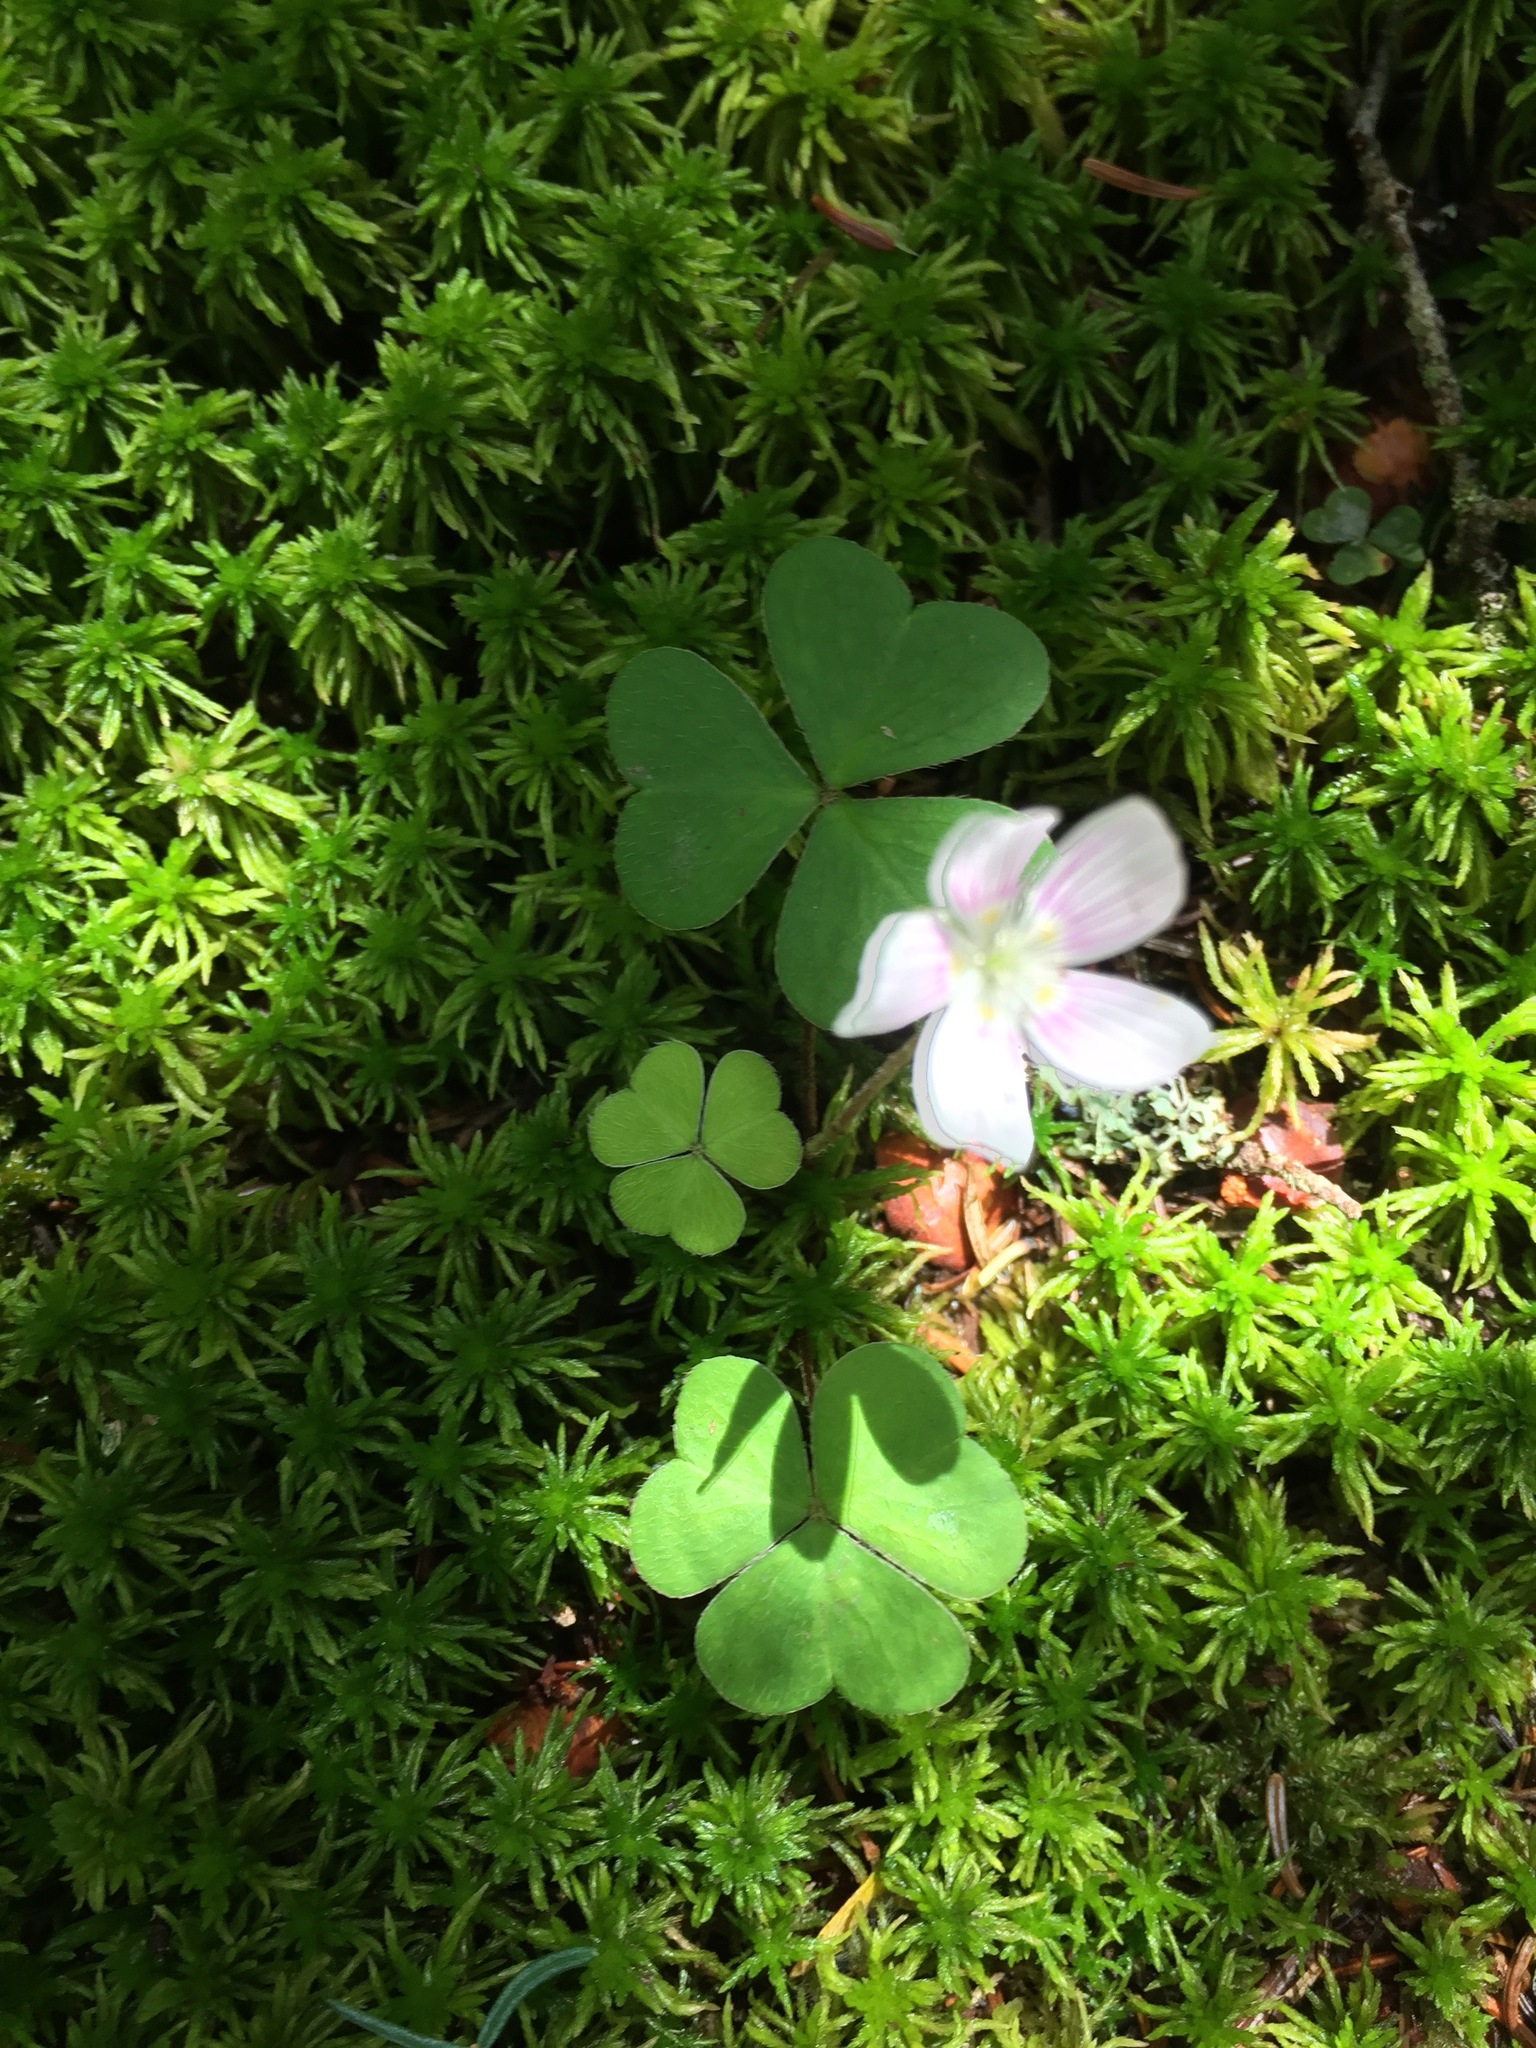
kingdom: Plantae
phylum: Tracheophyta
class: Magnoliopsida
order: Oxalidales
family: Oxalidaceae
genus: Oxalis
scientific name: Oxalis montana
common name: American wood-sorrel
